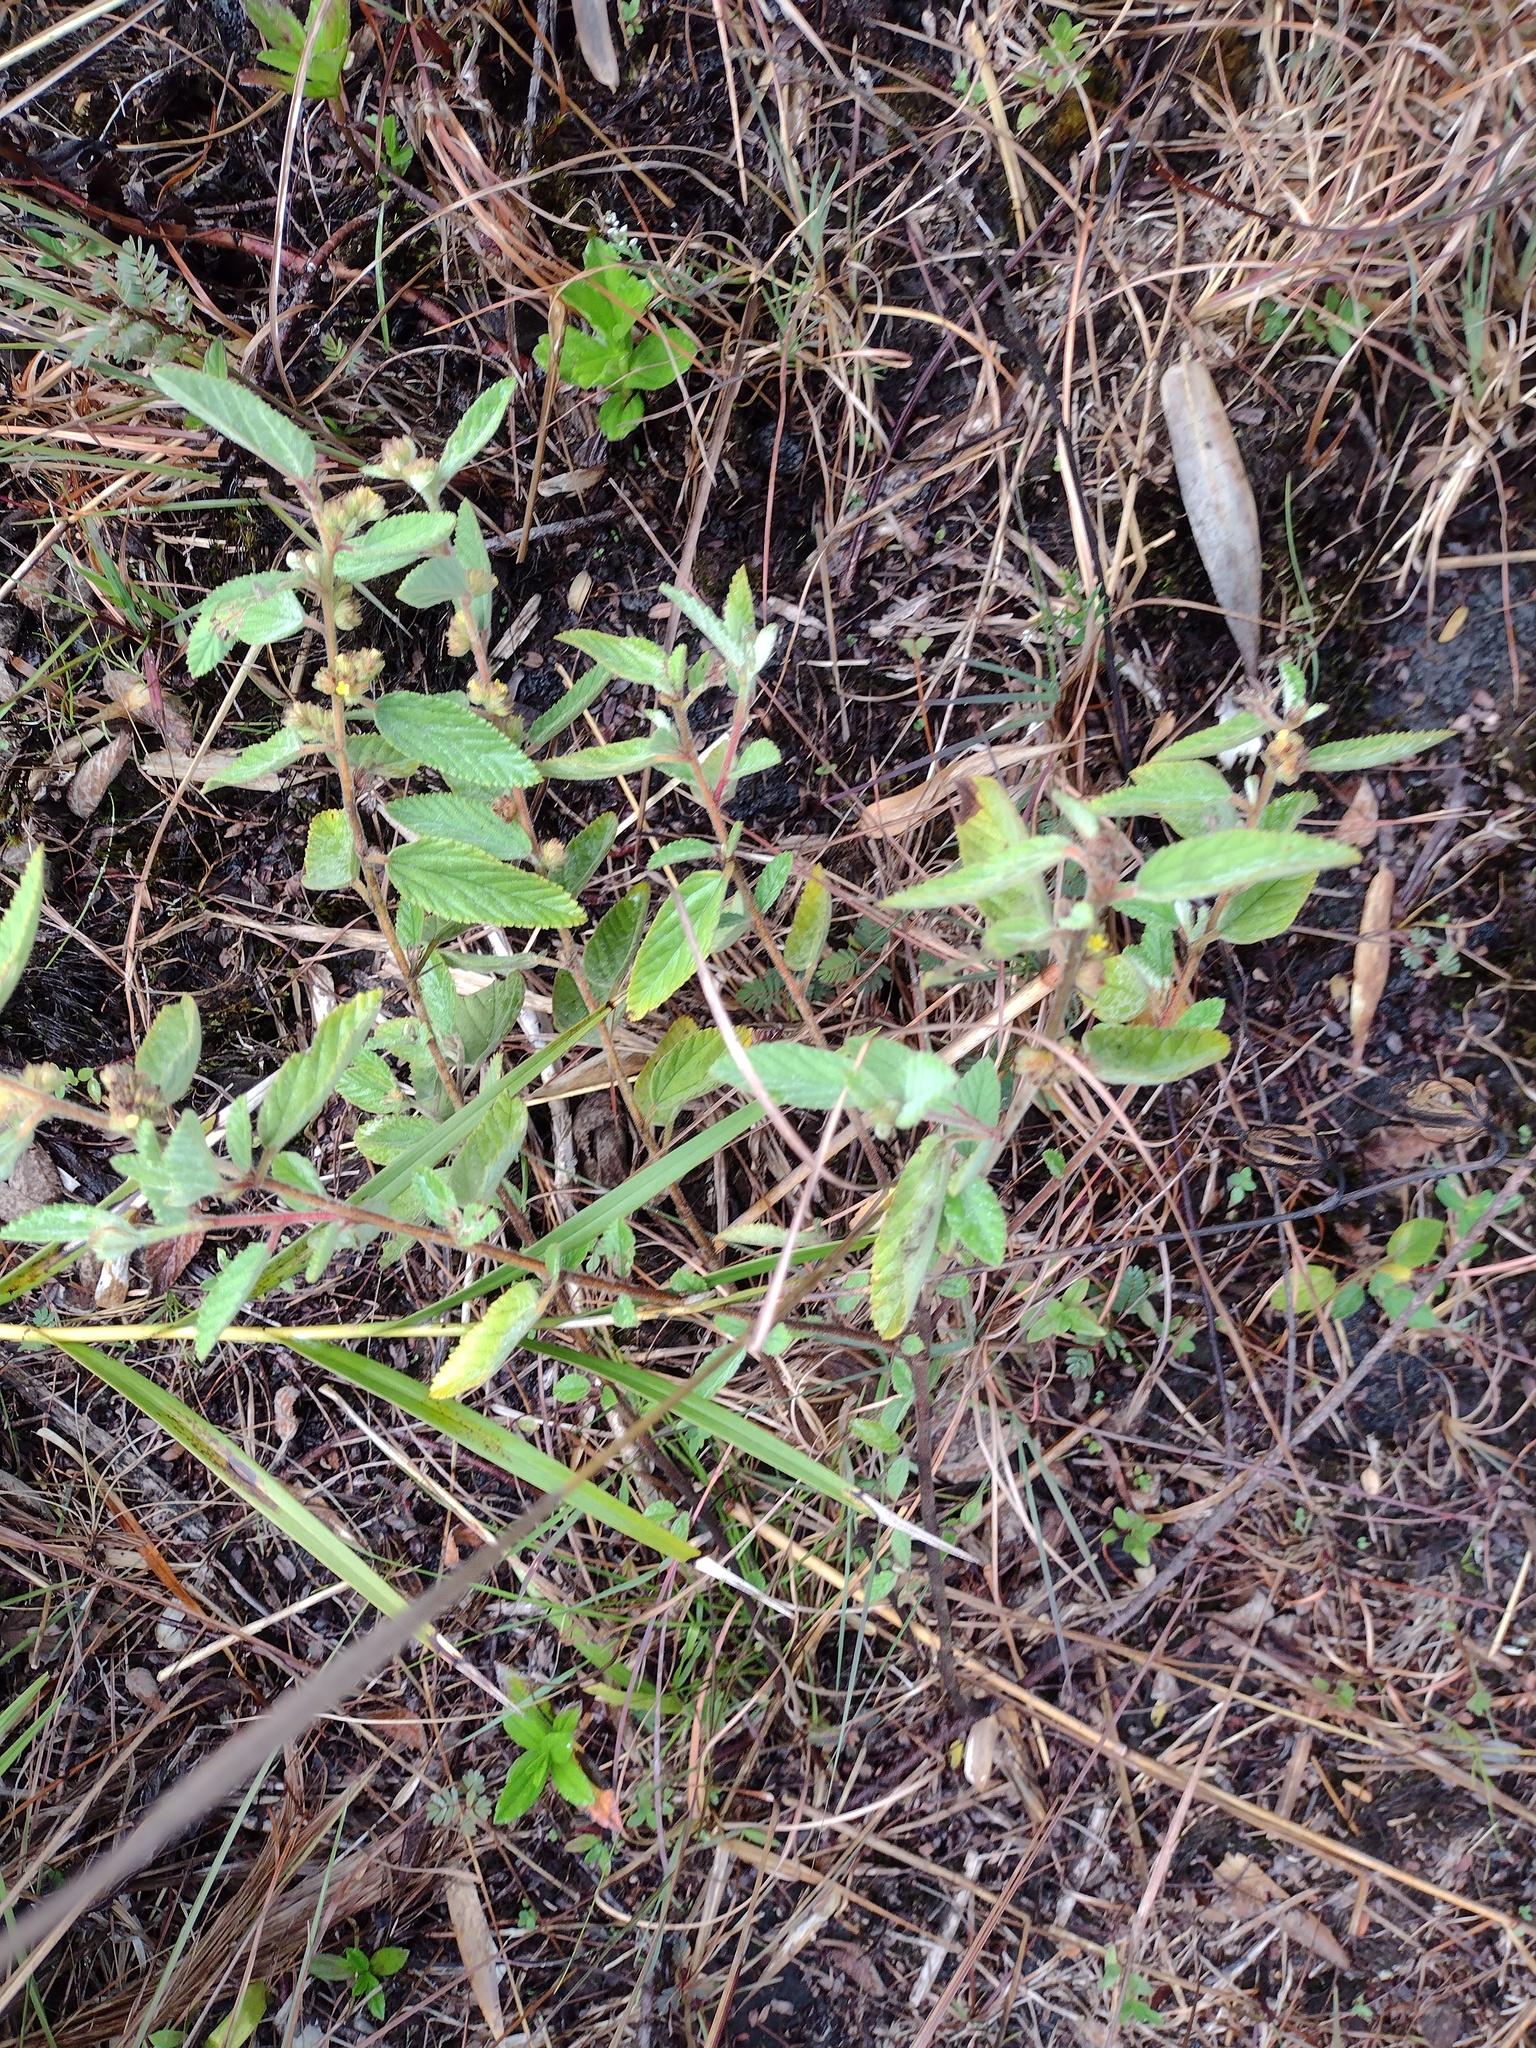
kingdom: Plantae
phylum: Tracheophyta
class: Magnoliopsida
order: Malvales
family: Malvaceae
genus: Waltheria
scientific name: Waltheria indica
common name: Leather-coat
